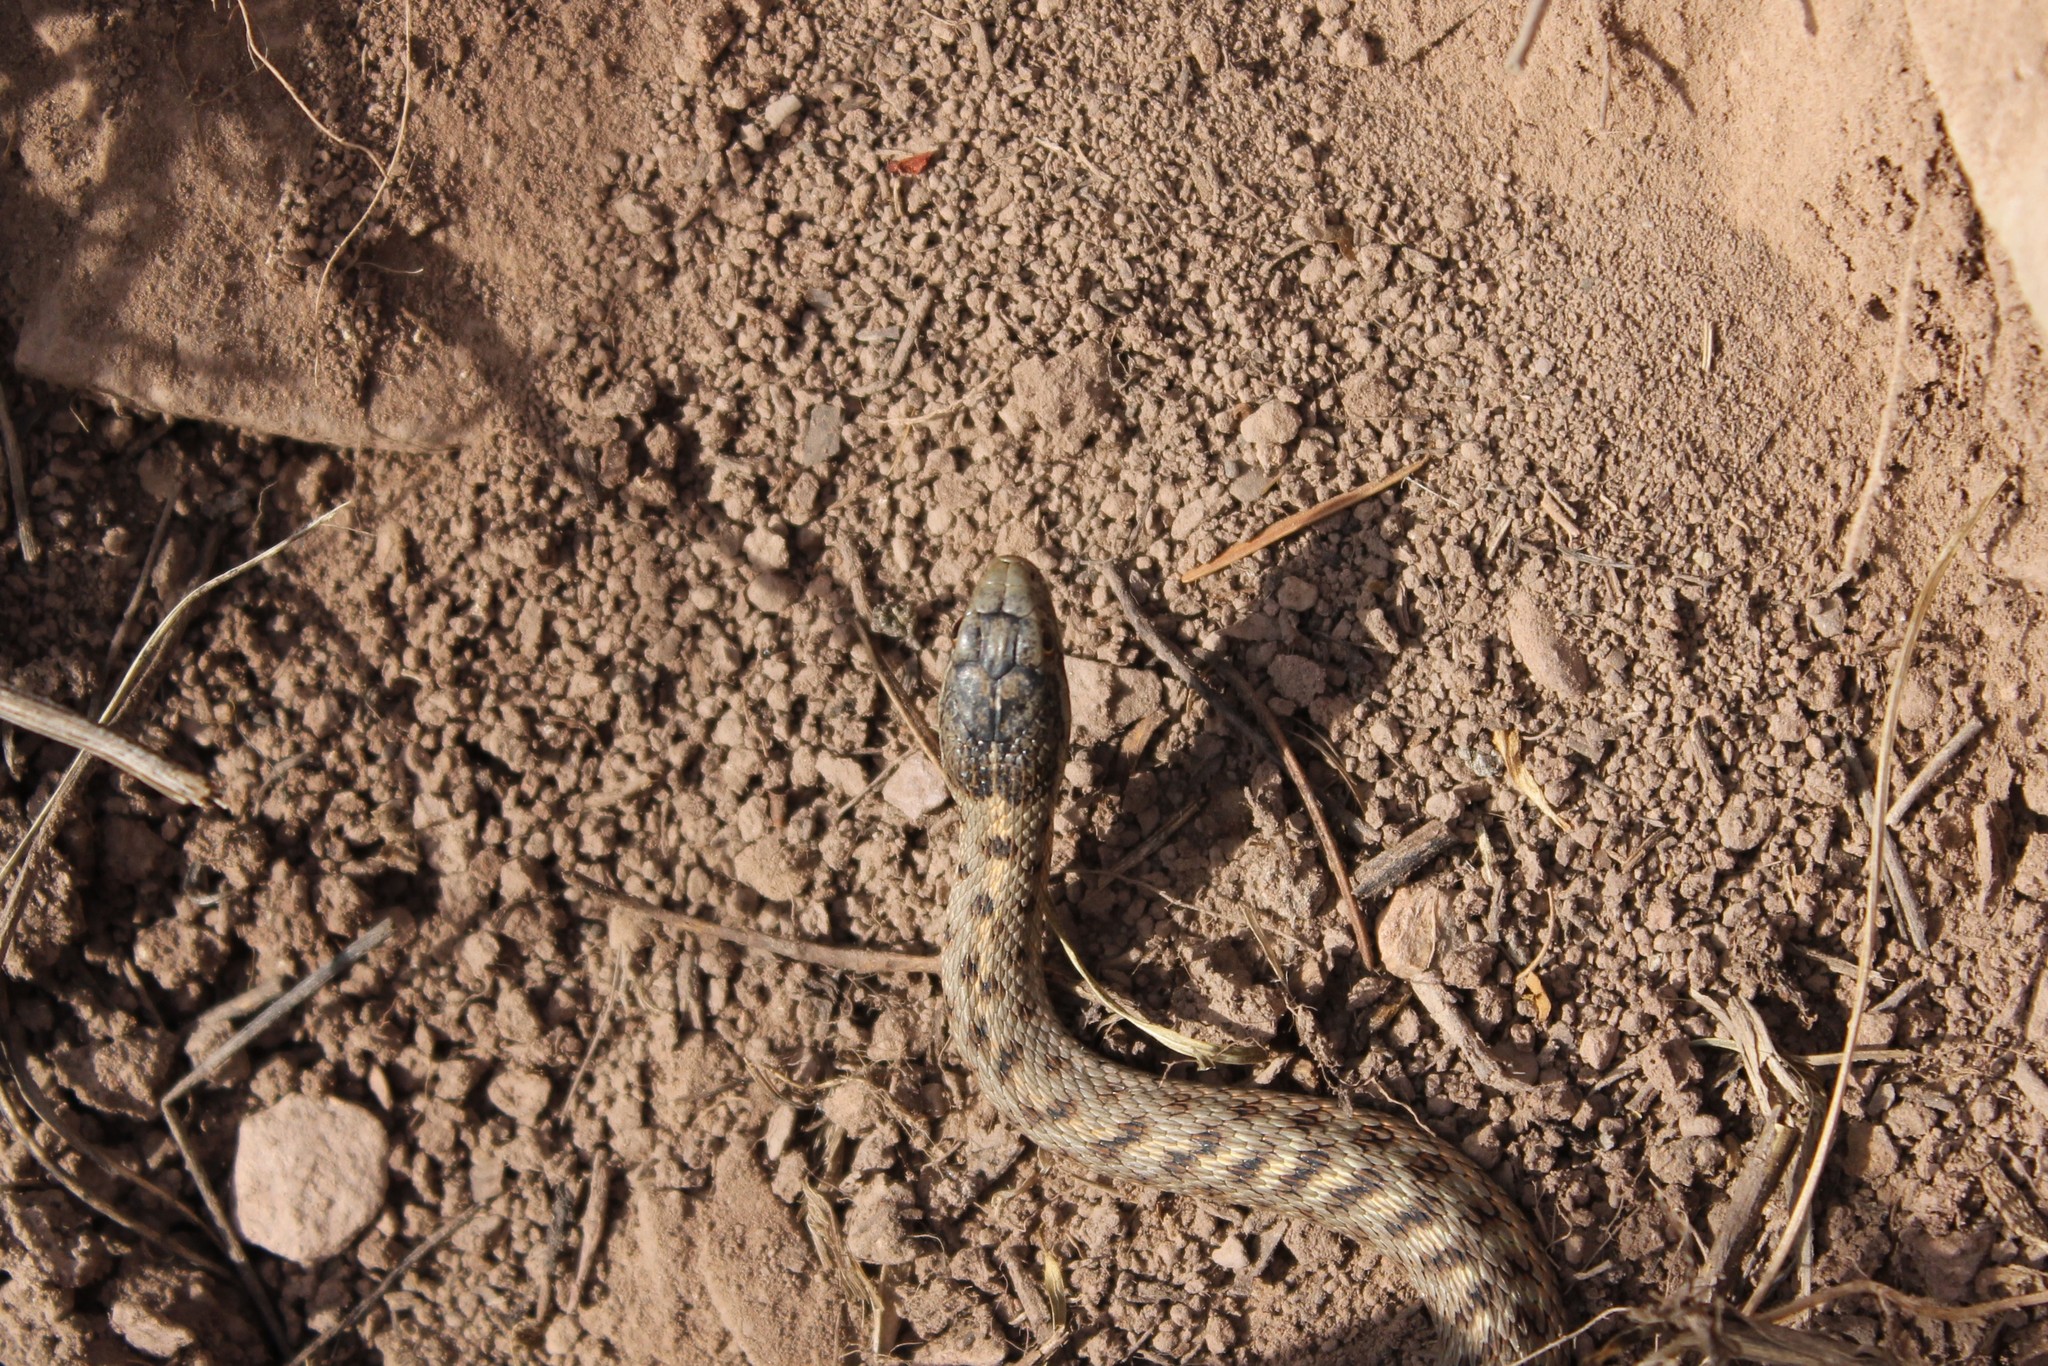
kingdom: Animalia
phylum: Chordata
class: Squamata
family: Colubridae
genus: Thamnophis
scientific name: Thamnophis elegans
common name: Western terrestrial garter snake
